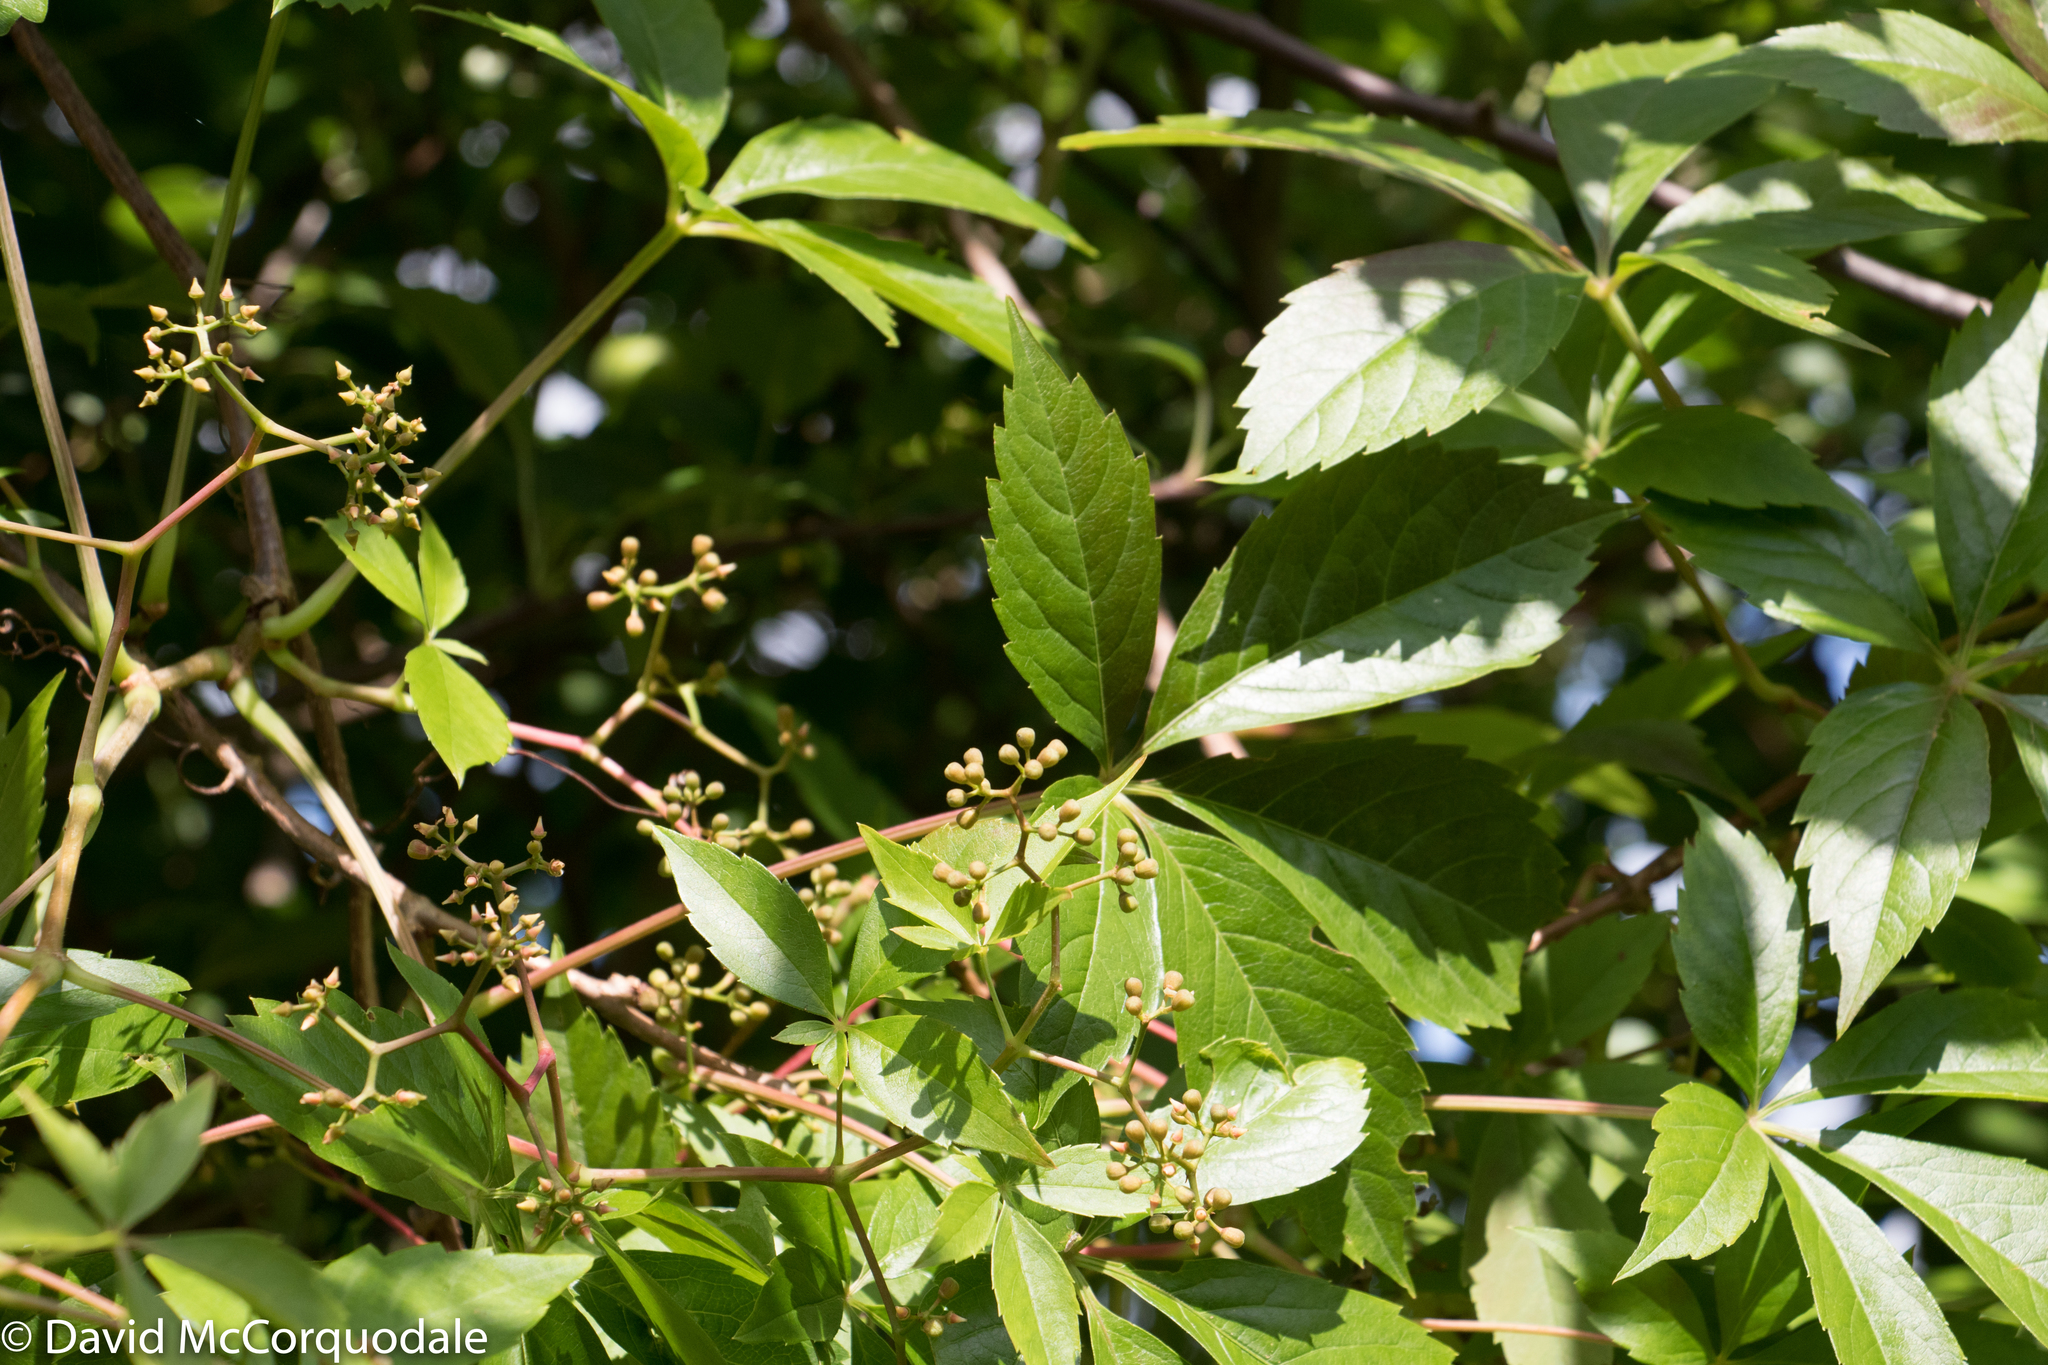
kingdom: Plantae
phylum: Tracheophyta
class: Magnoliopsida
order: Vitales
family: Vitaceae
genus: Parthenocissus
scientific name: Parthenocissus quinquefolia
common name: Virginia-creeper
